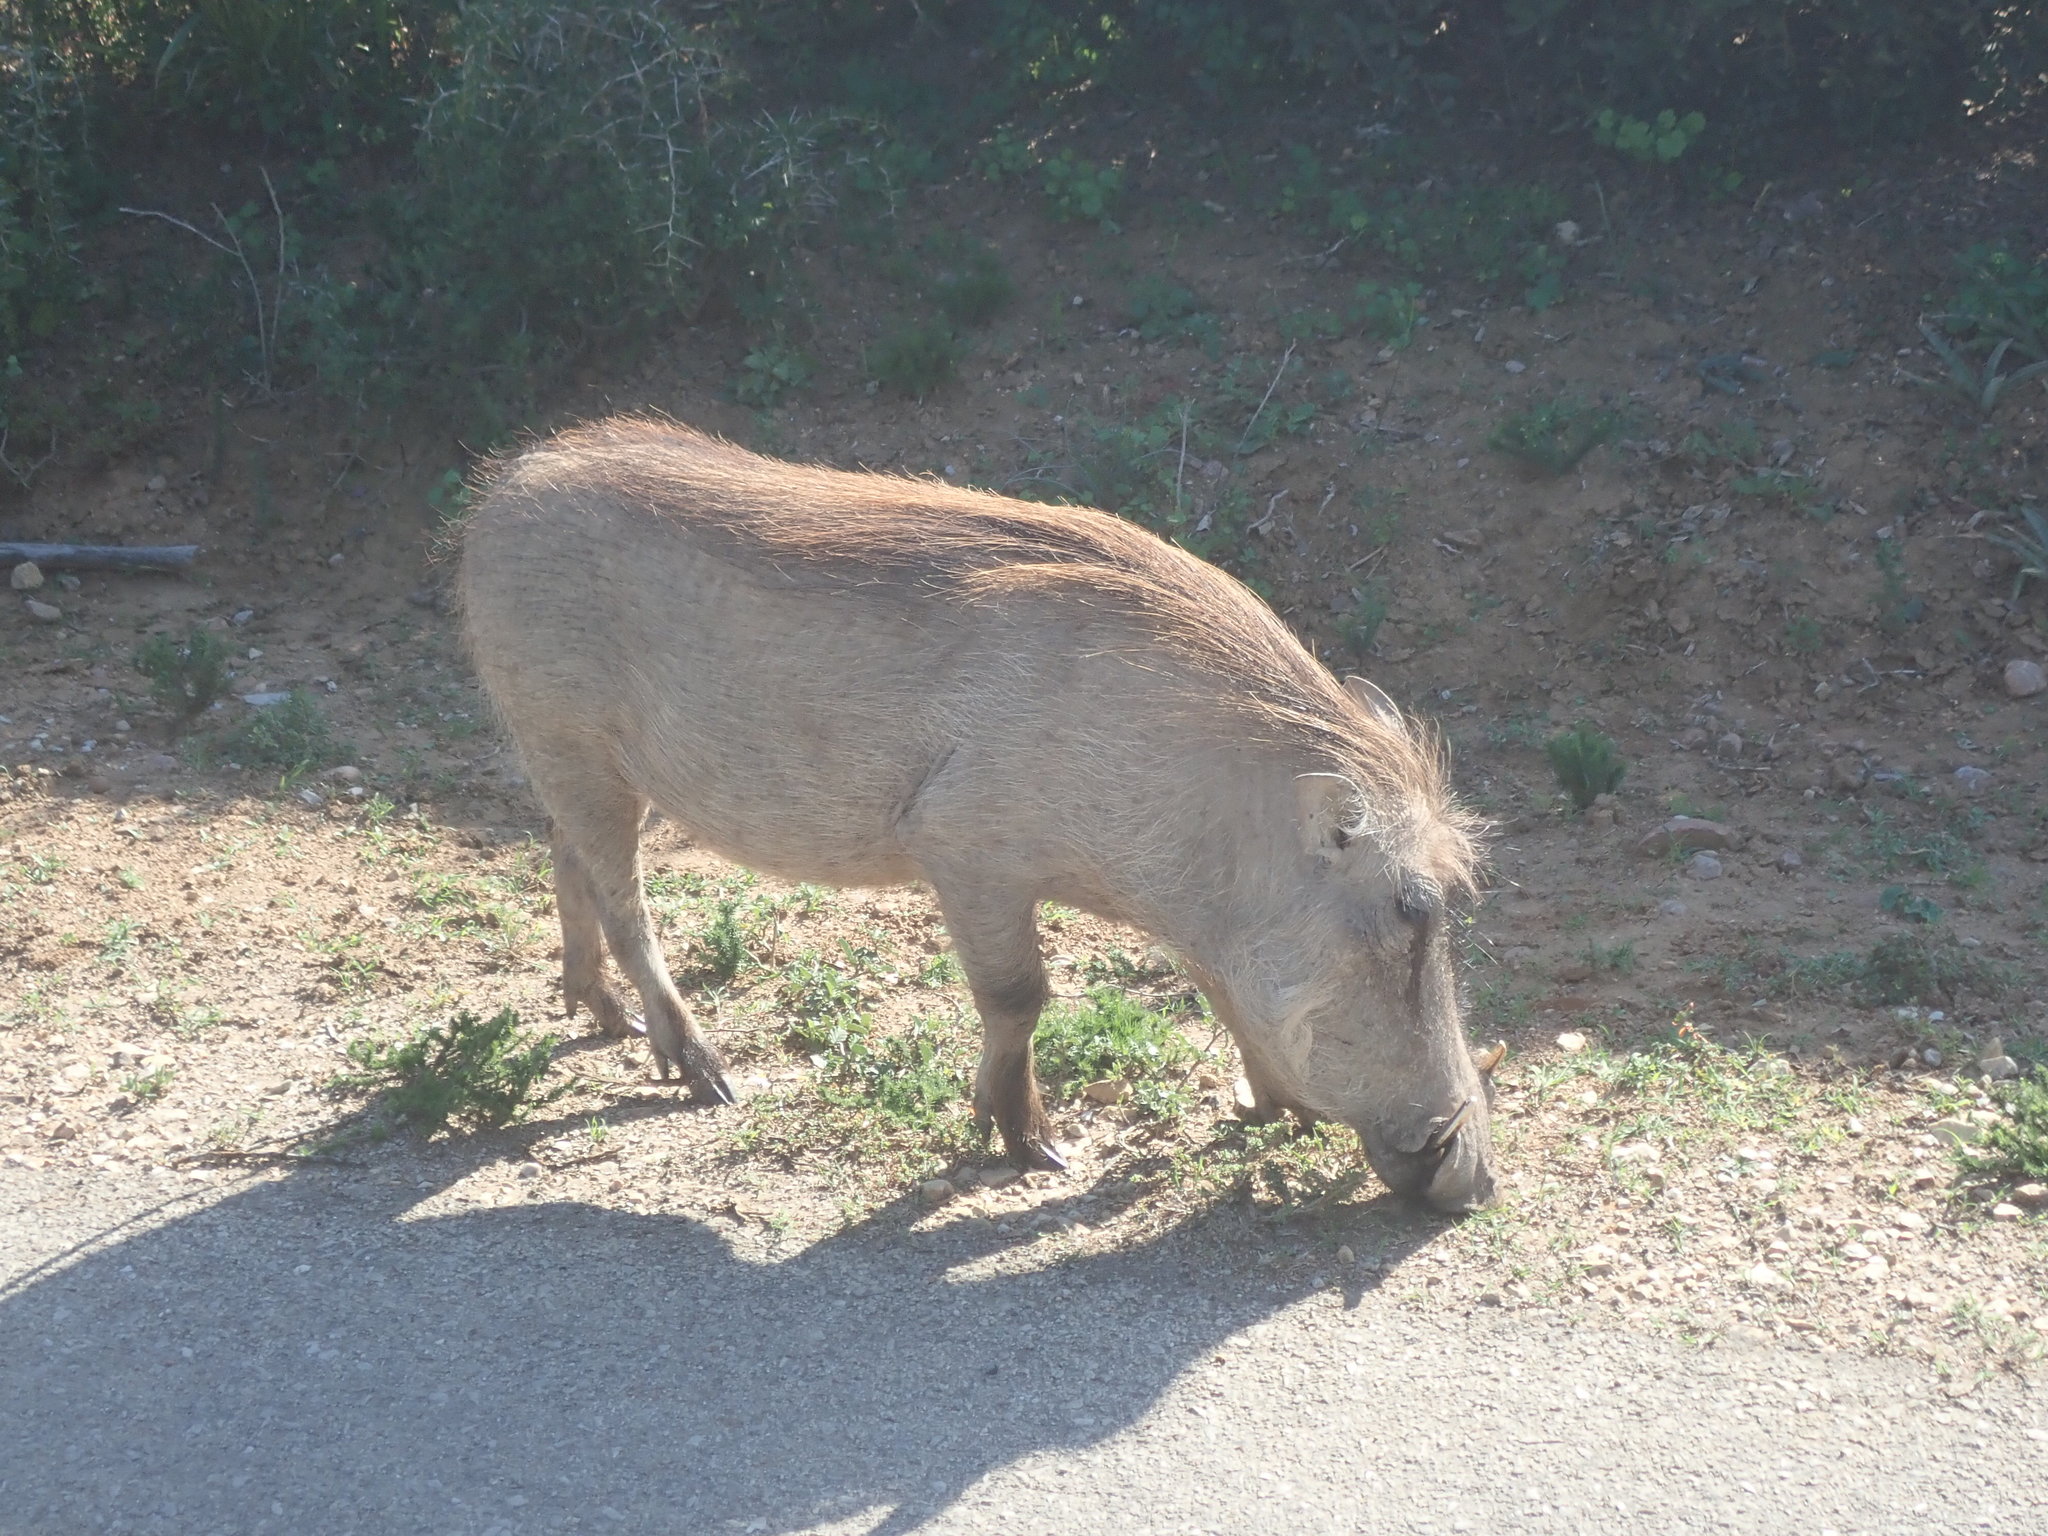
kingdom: Animalia
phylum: Chordata
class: Mammalia
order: Artiodactyla
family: Suidae
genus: Phacochoerus
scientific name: Phacochoerus africanus
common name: Common warthog
